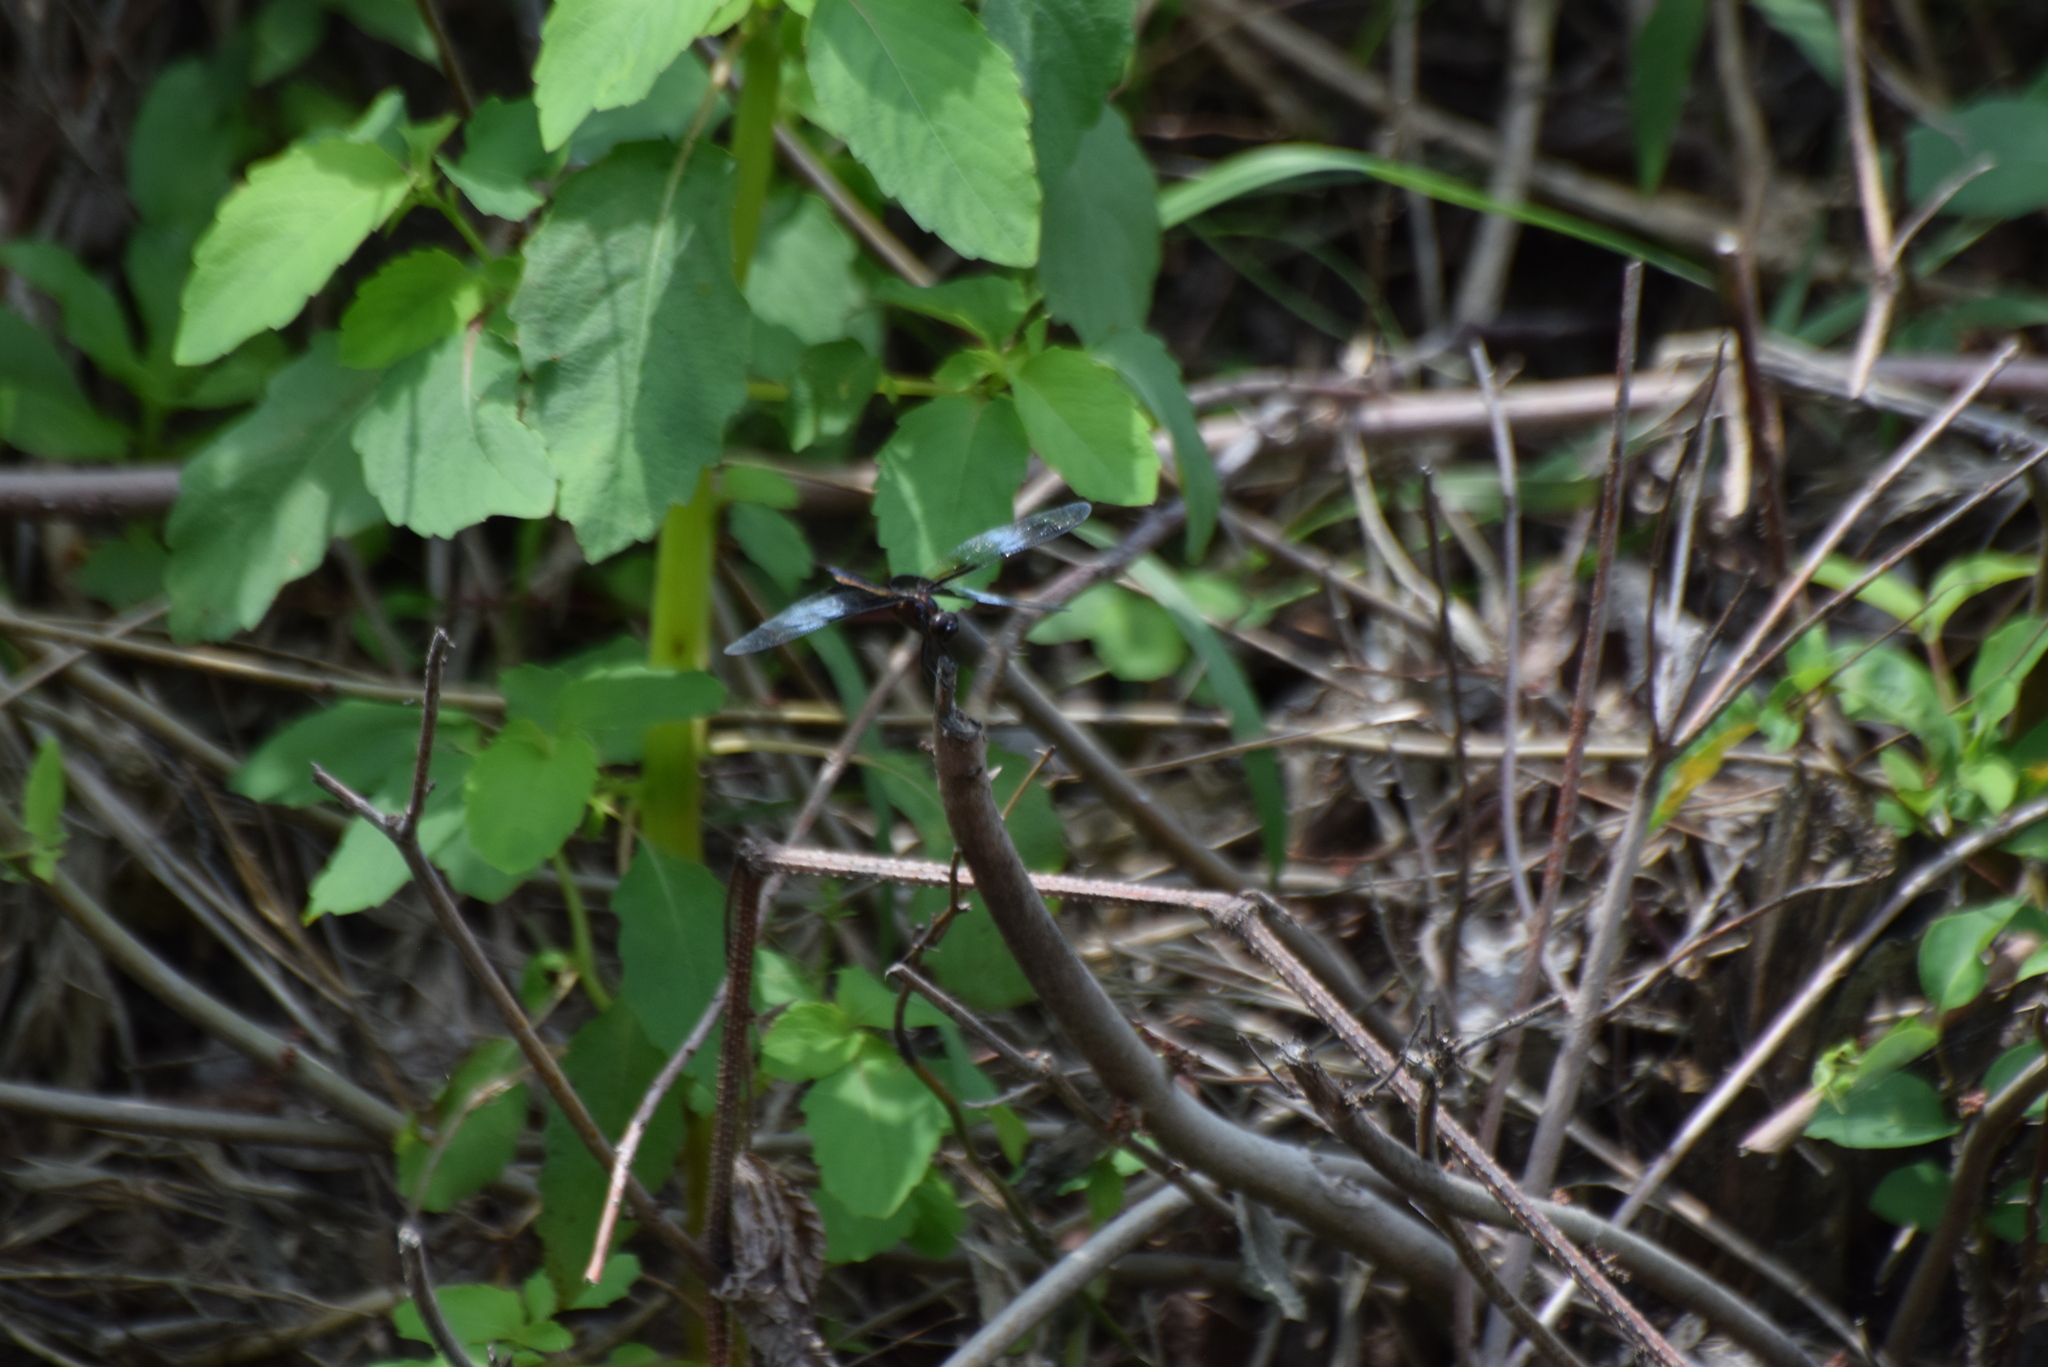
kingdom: Animalia
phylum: Arthropoda
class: Insecta
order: Odonata
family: Libellulidae
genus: Libellula
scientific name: Libellula luctuosa
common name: Widow skimmer
